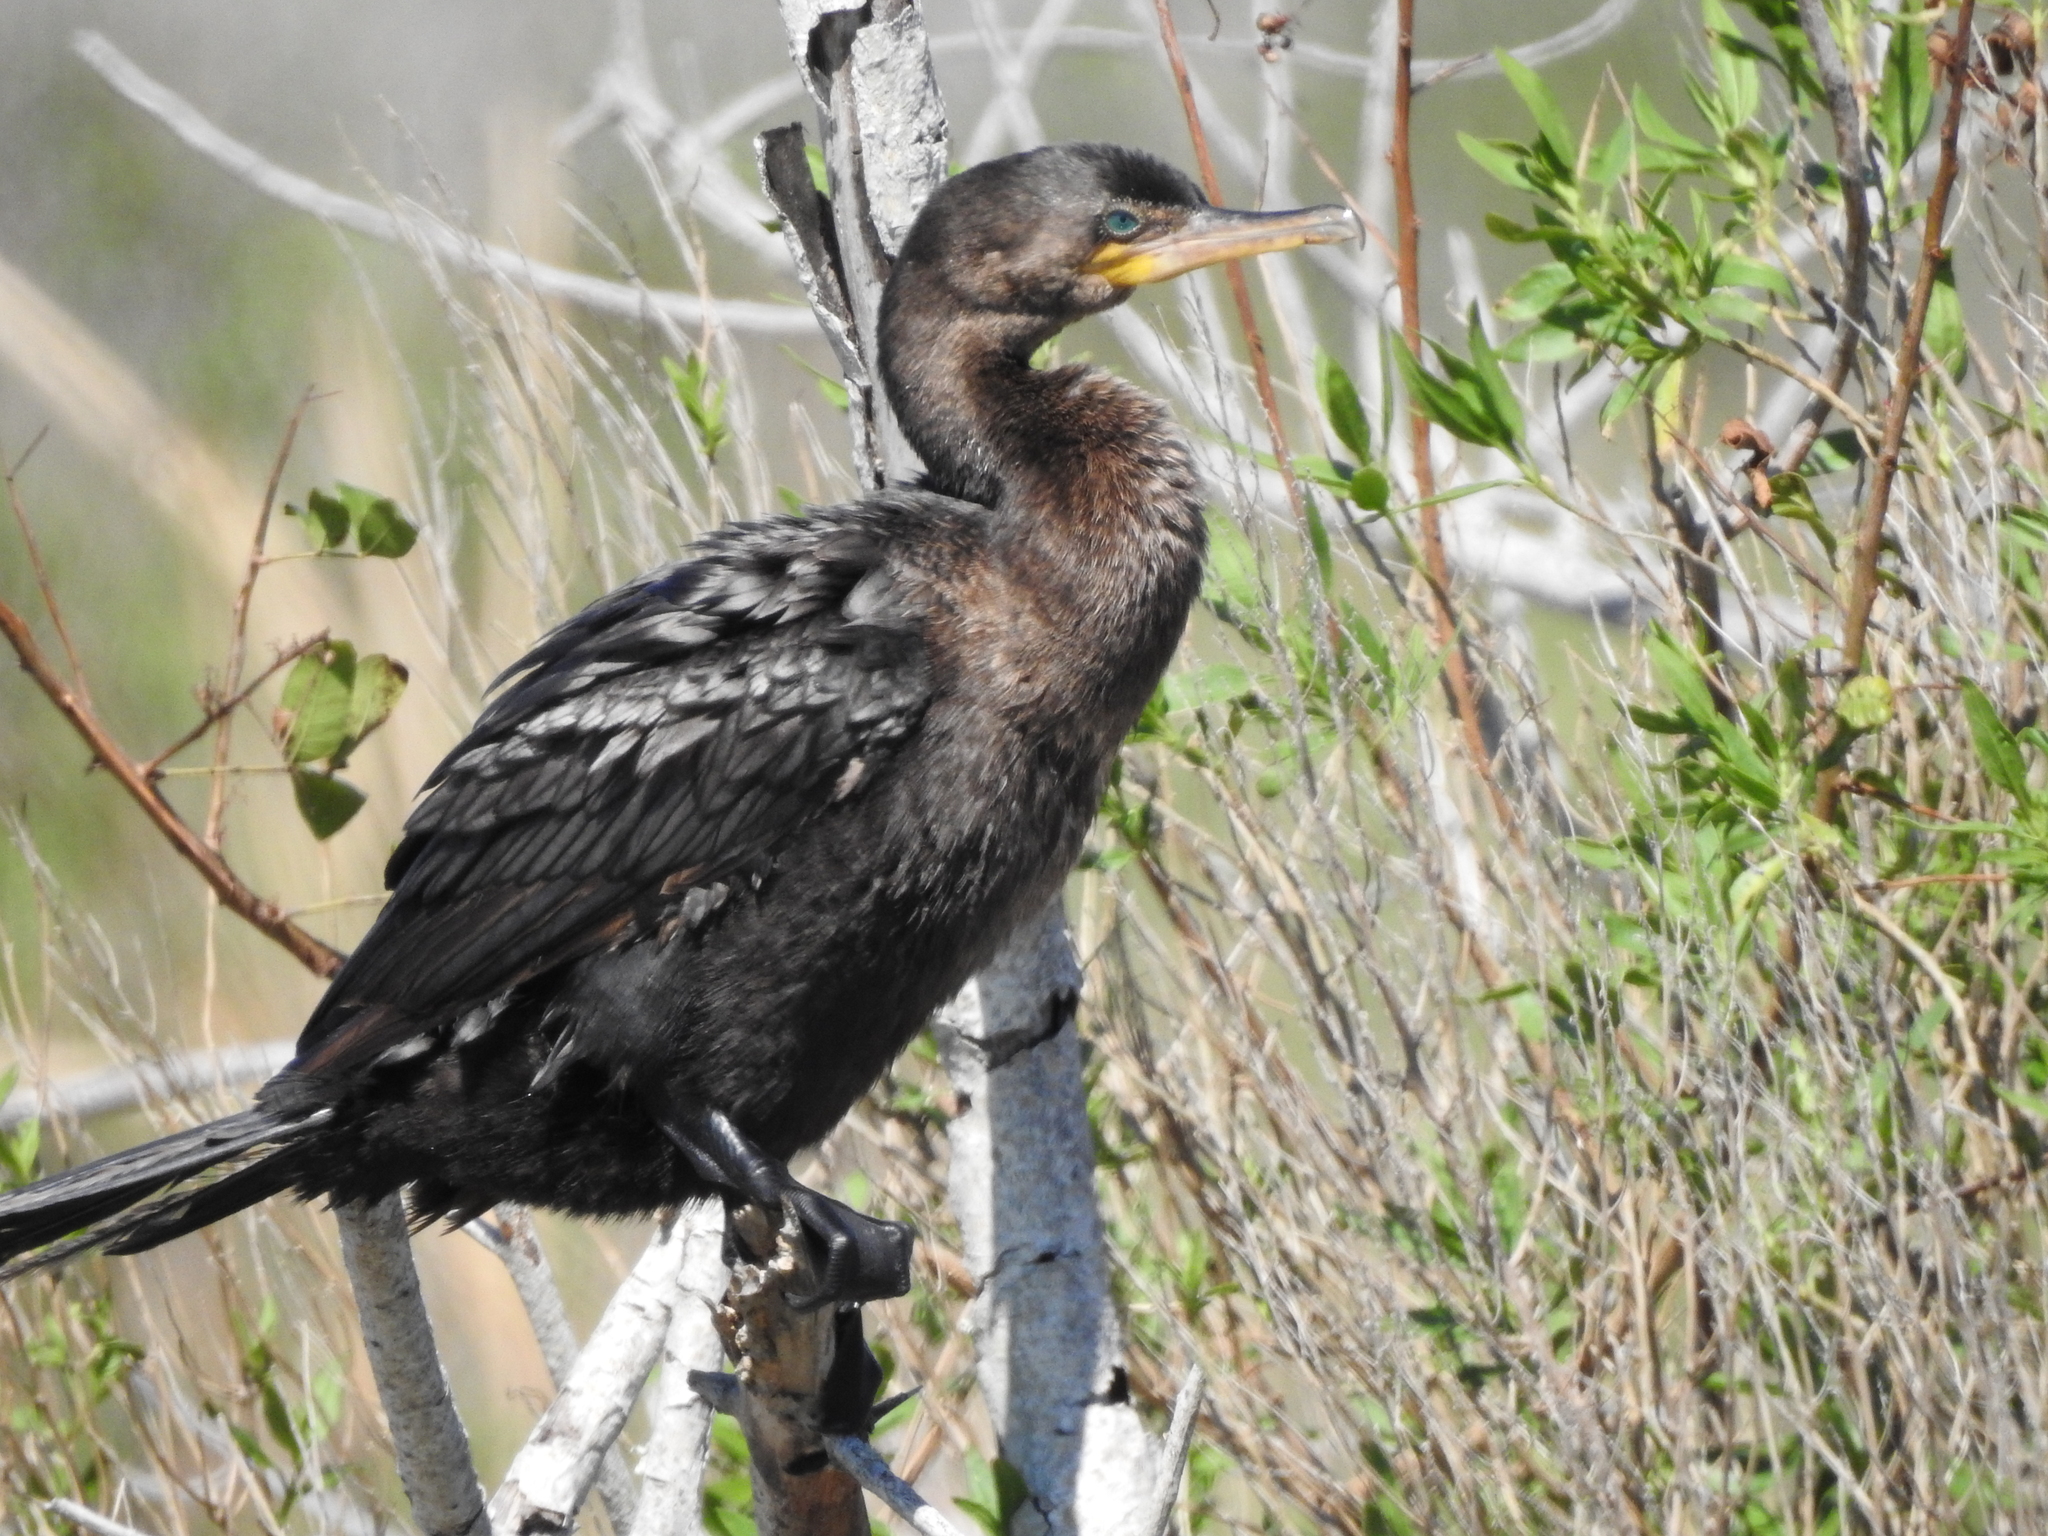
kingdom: Animalia
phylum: Chordata
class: Aves
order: Suliformes
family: Phalacrocoracidae
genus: Phalacrocorax
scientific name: Phalacrocorax brasilianus
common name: Neotropic cormorant
